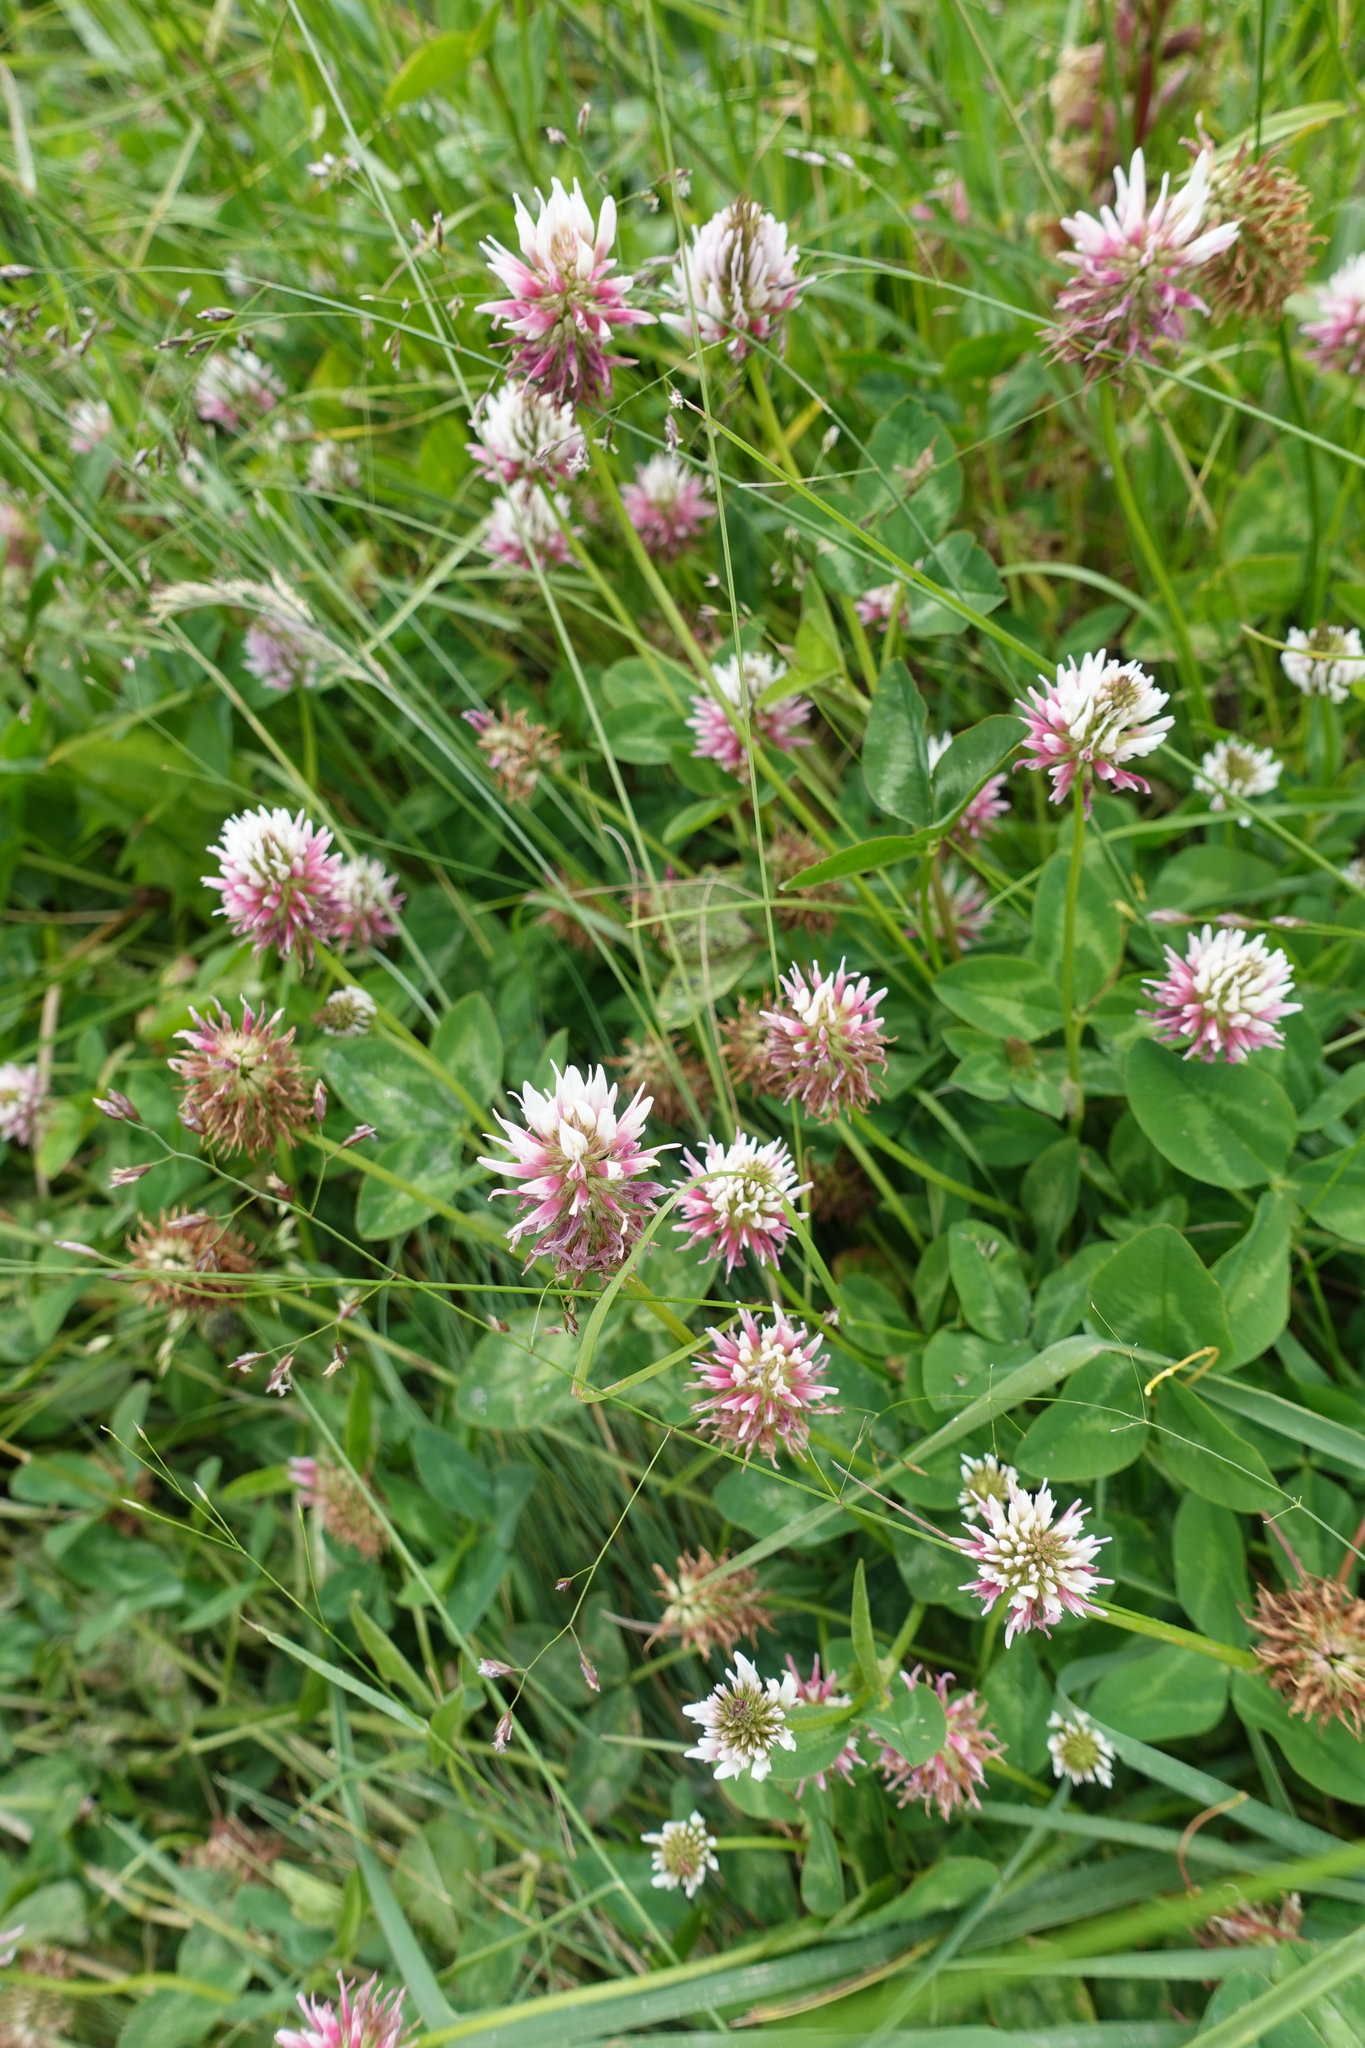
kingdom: Plantae
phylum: Tracheophyta
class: Magnoliopsida
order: Fabales
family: Fabaceae
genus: Trifolium
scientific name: Trifolium ambiguum
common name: Kura clover
